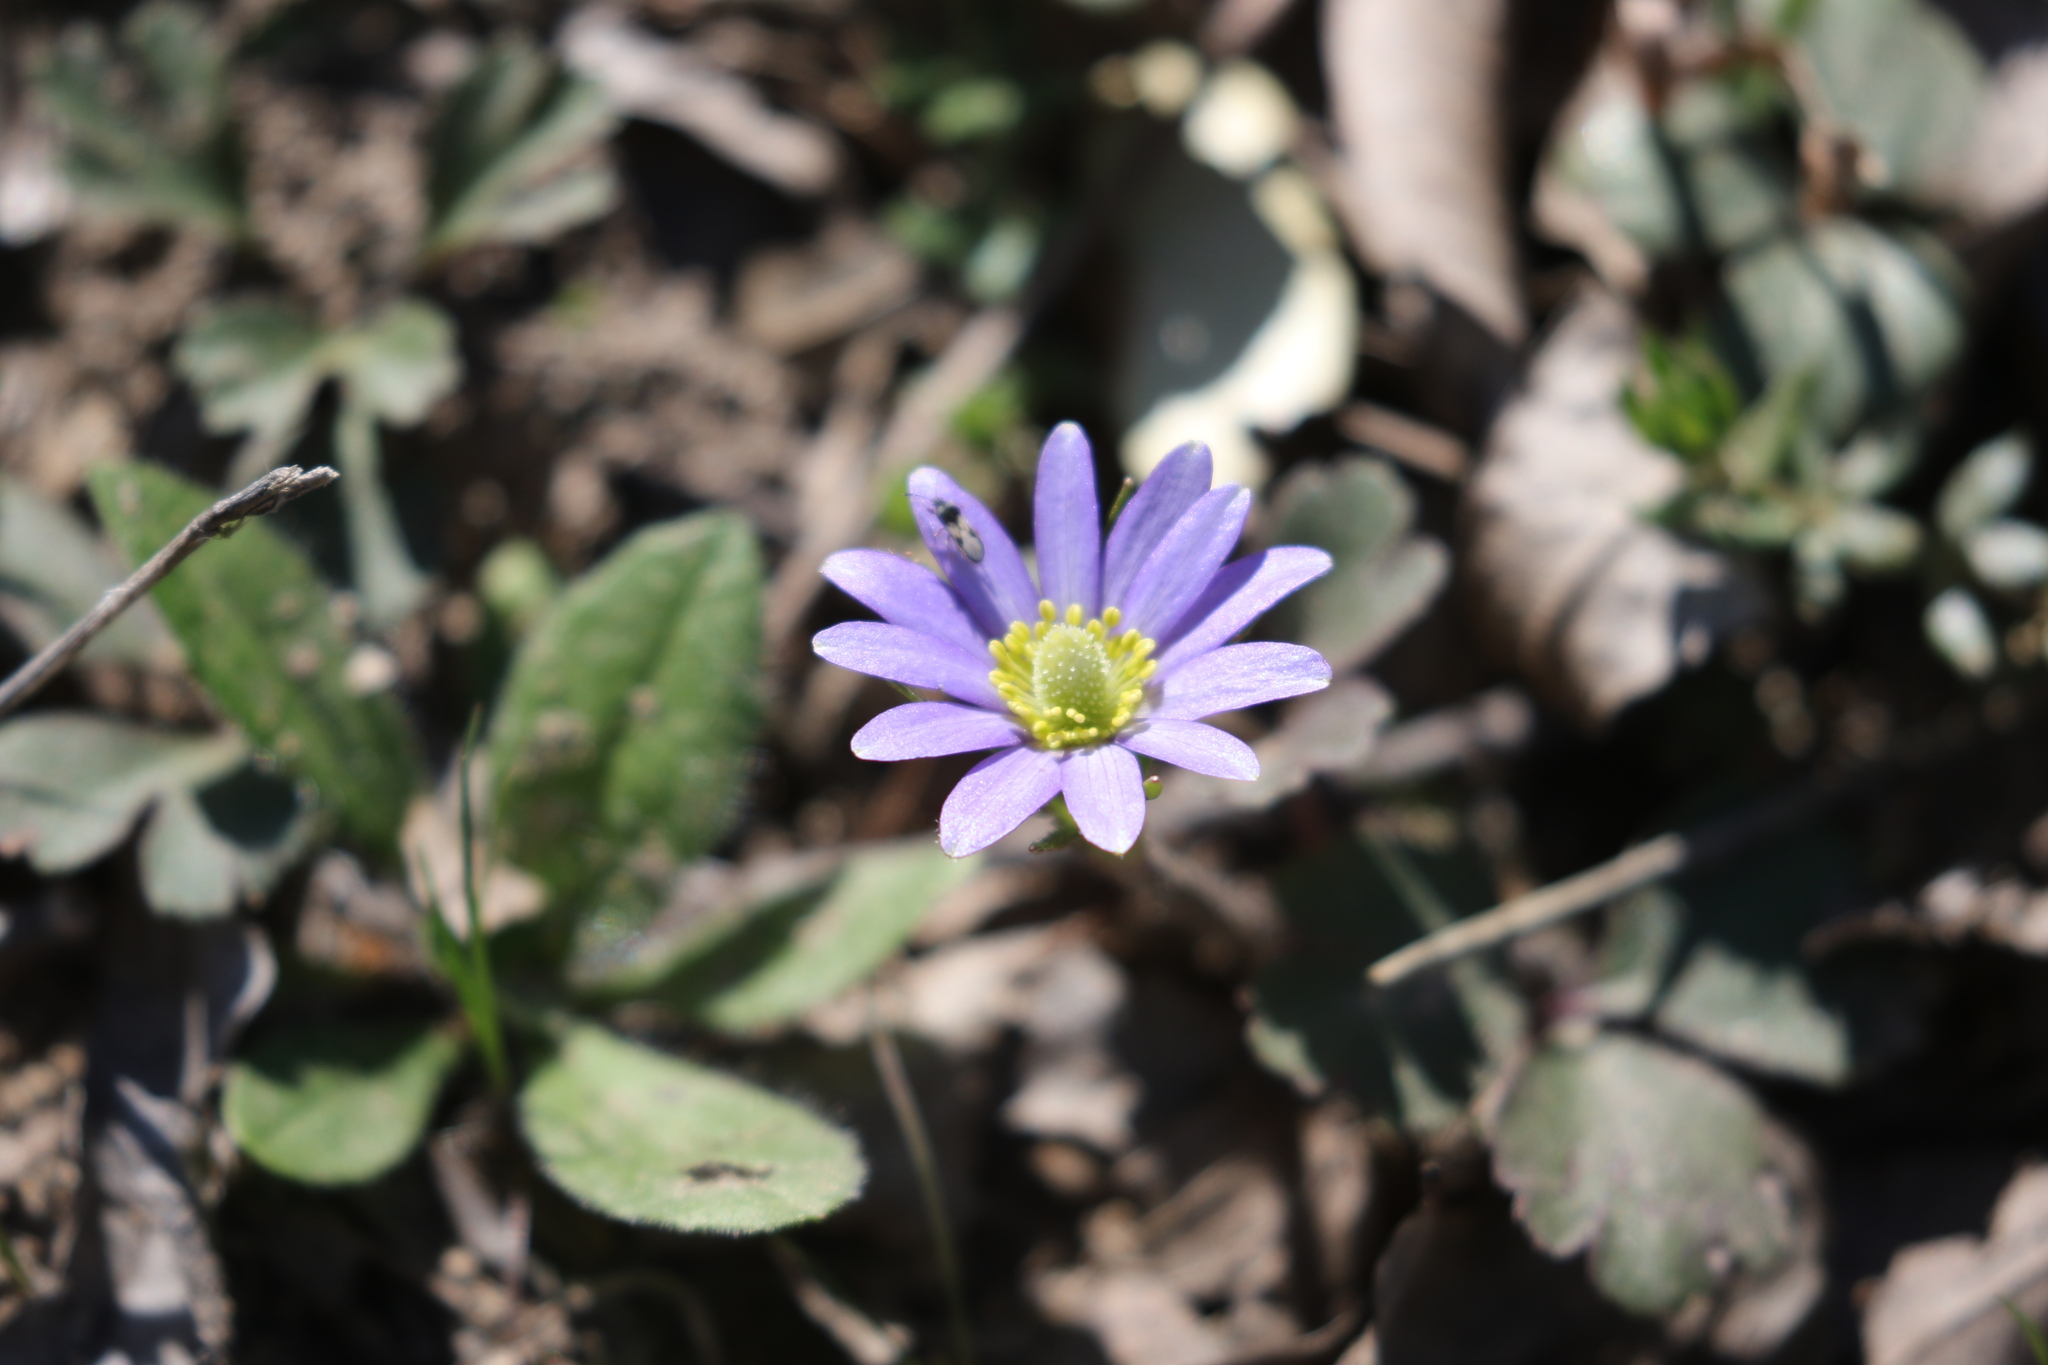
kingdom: Plantae
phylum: Tracheophyta
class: Magnoliopsida
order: Ranunculales
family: Ranunculaceae
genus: Anemone
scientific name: Anemone berlandieri
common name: Ten-petal anemone
